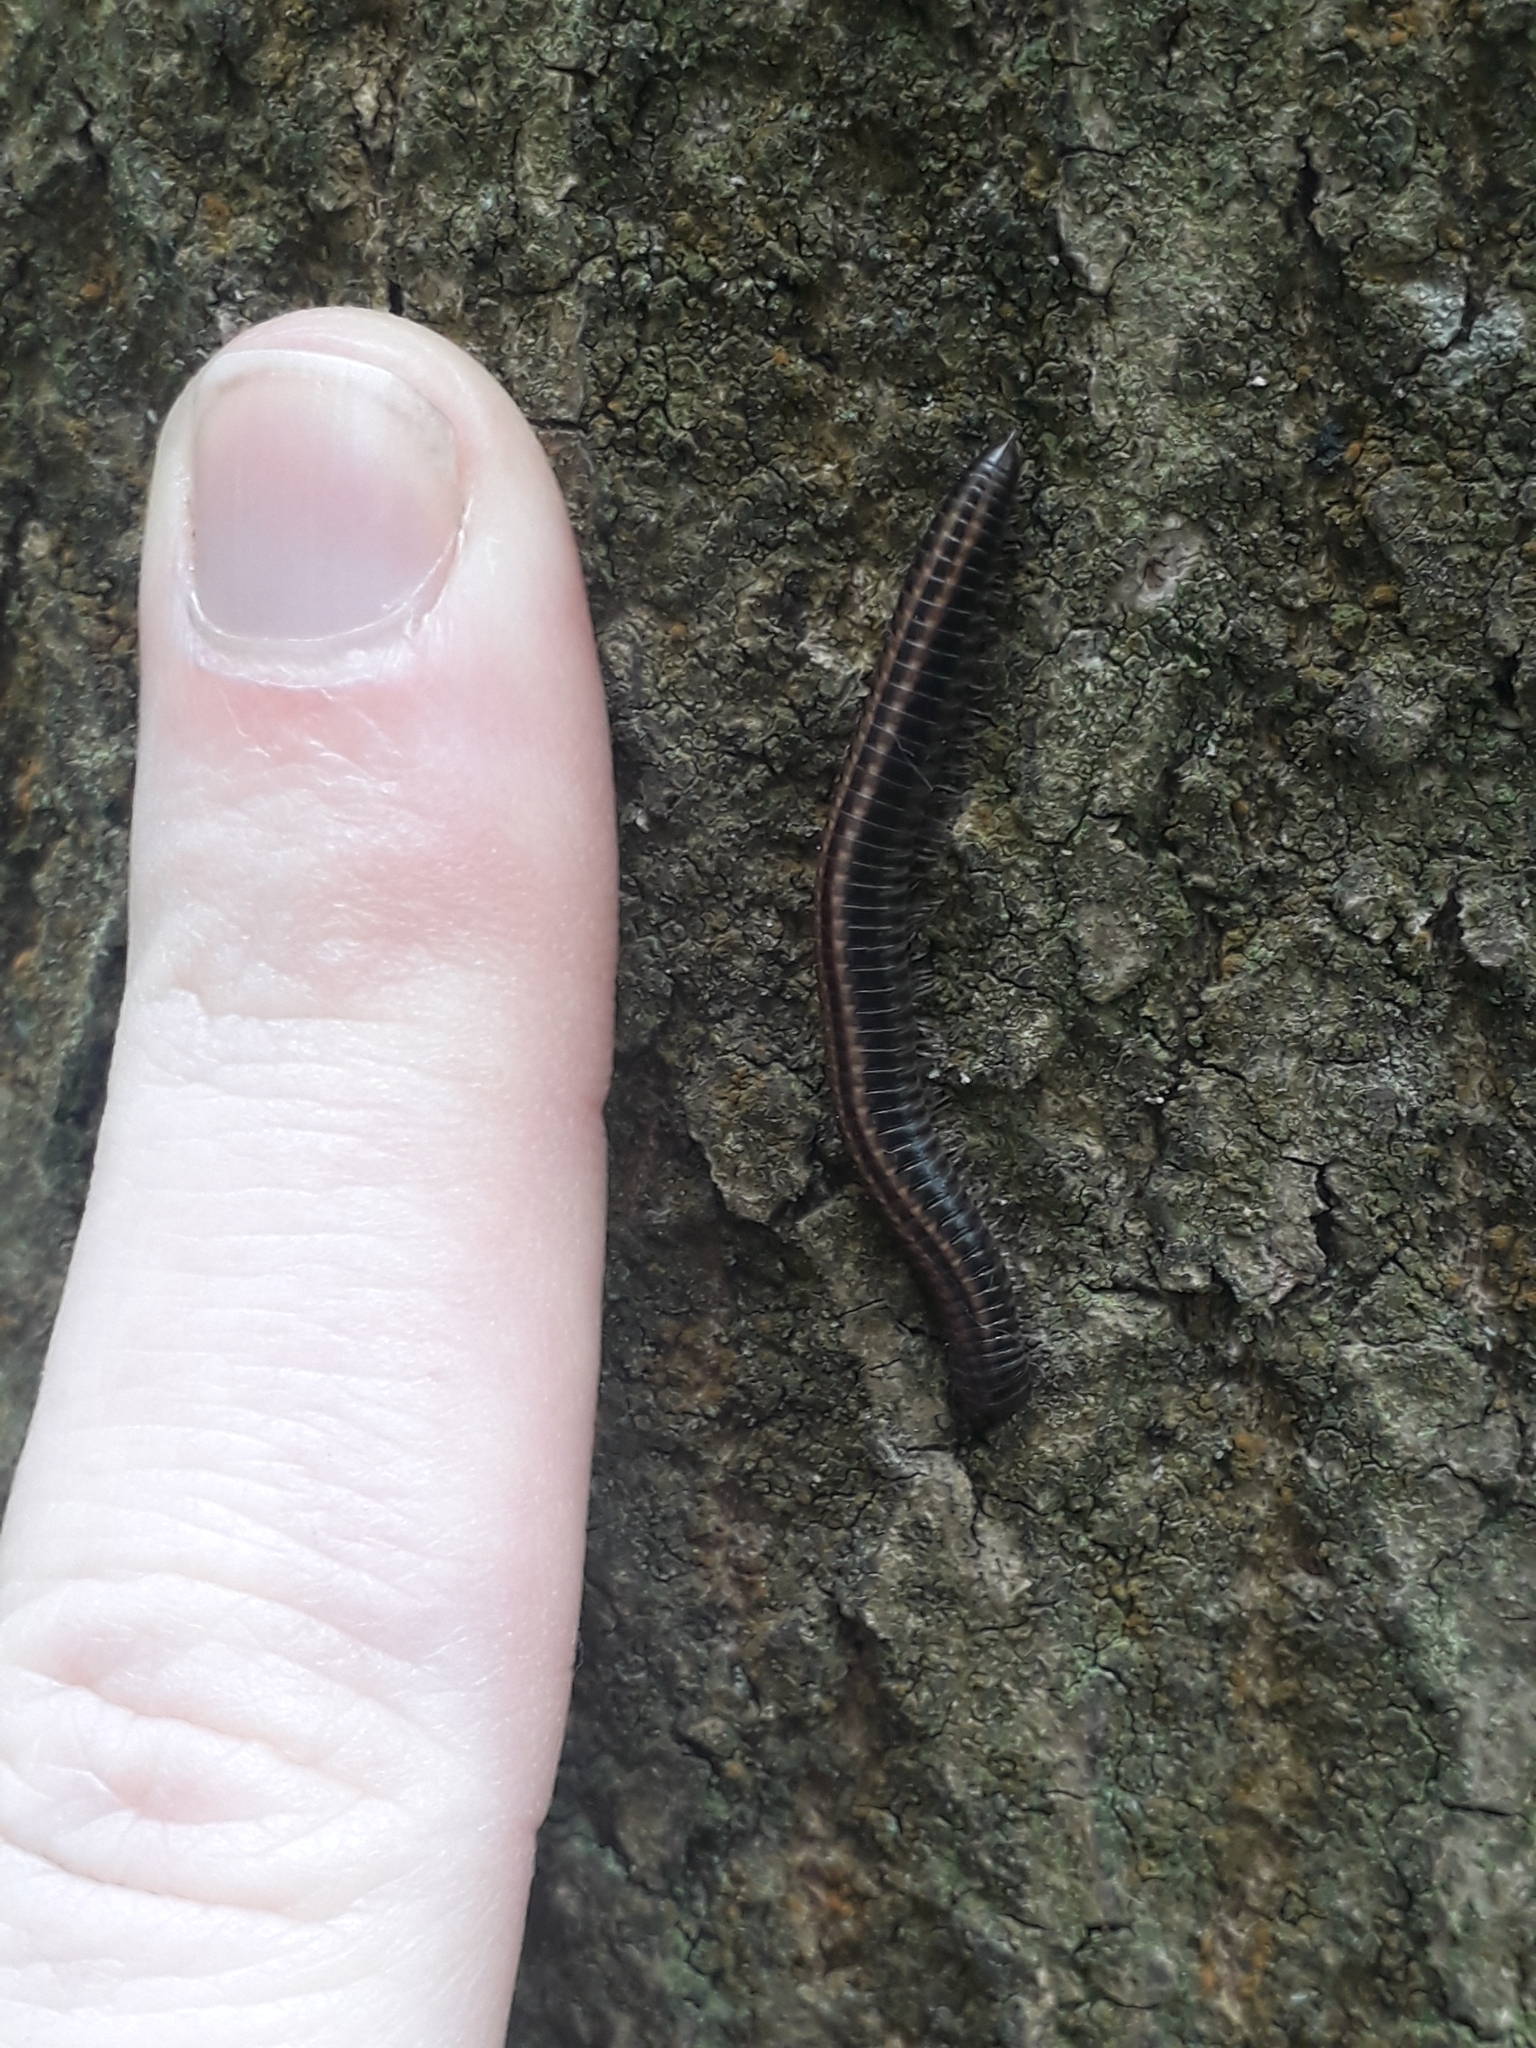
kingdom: Animalia
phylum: Arthropoda
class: Diplopoda
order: Julida
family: Julidae
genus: Ommatoiulus
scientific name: Ommatoiulus sabulosus
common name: Striped millipede
